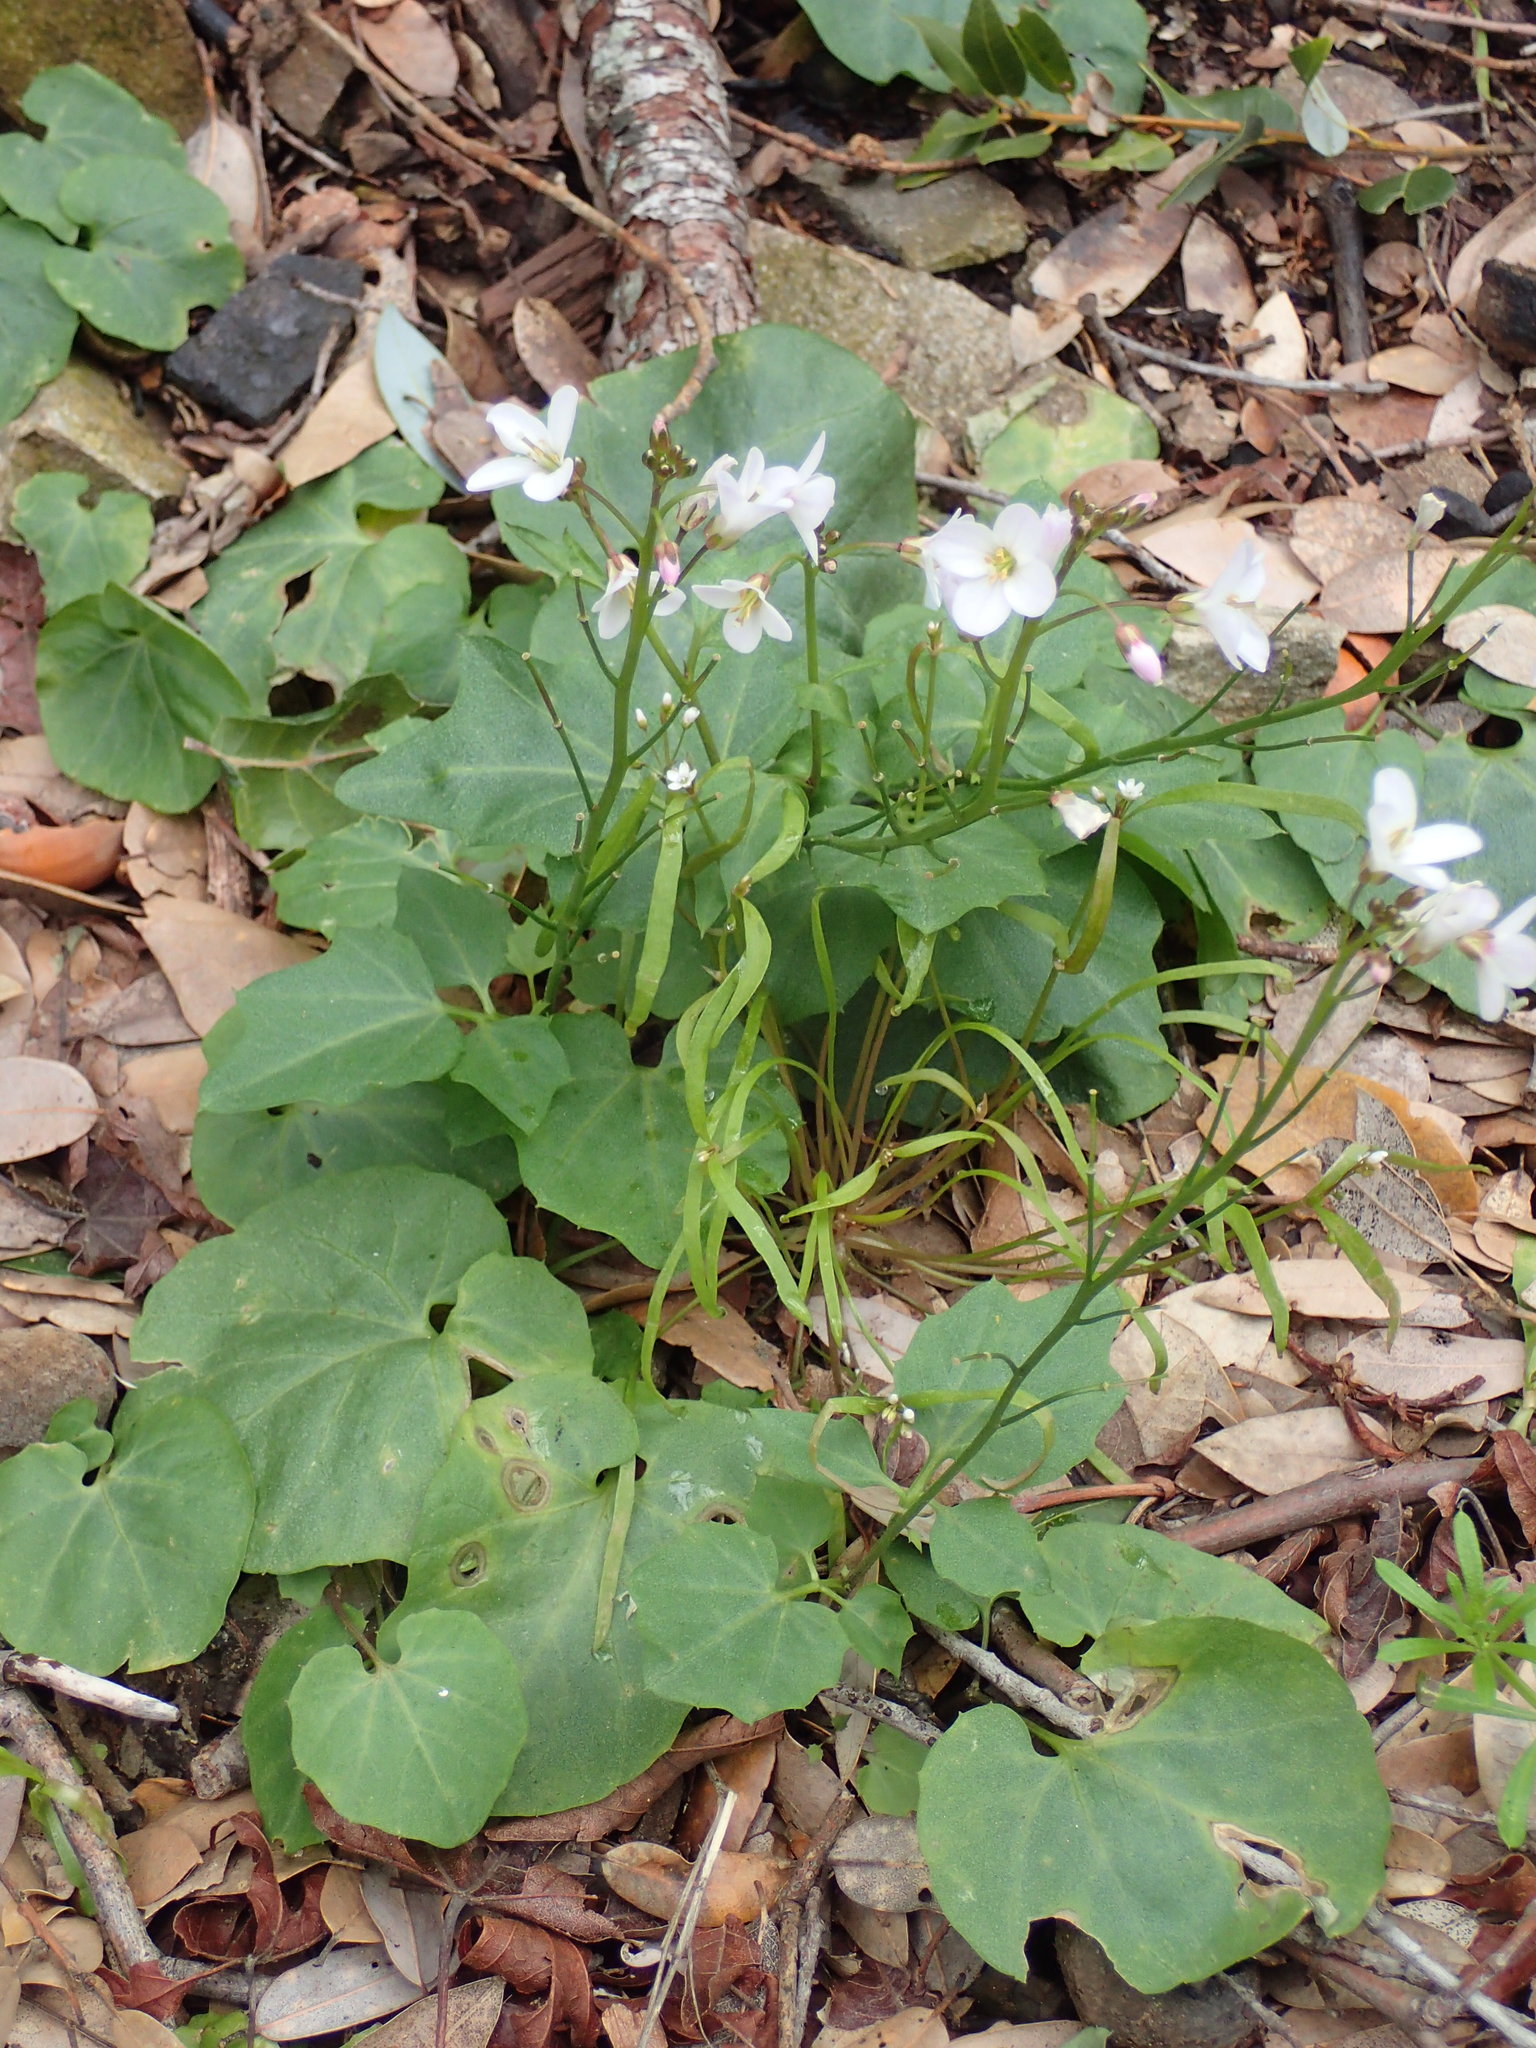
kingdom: Plantae
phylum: Tracheophyta
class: Magnoliopsida
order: Brassicales
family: Brassicaceae
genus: Cardamine
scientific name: Cardamine californica
